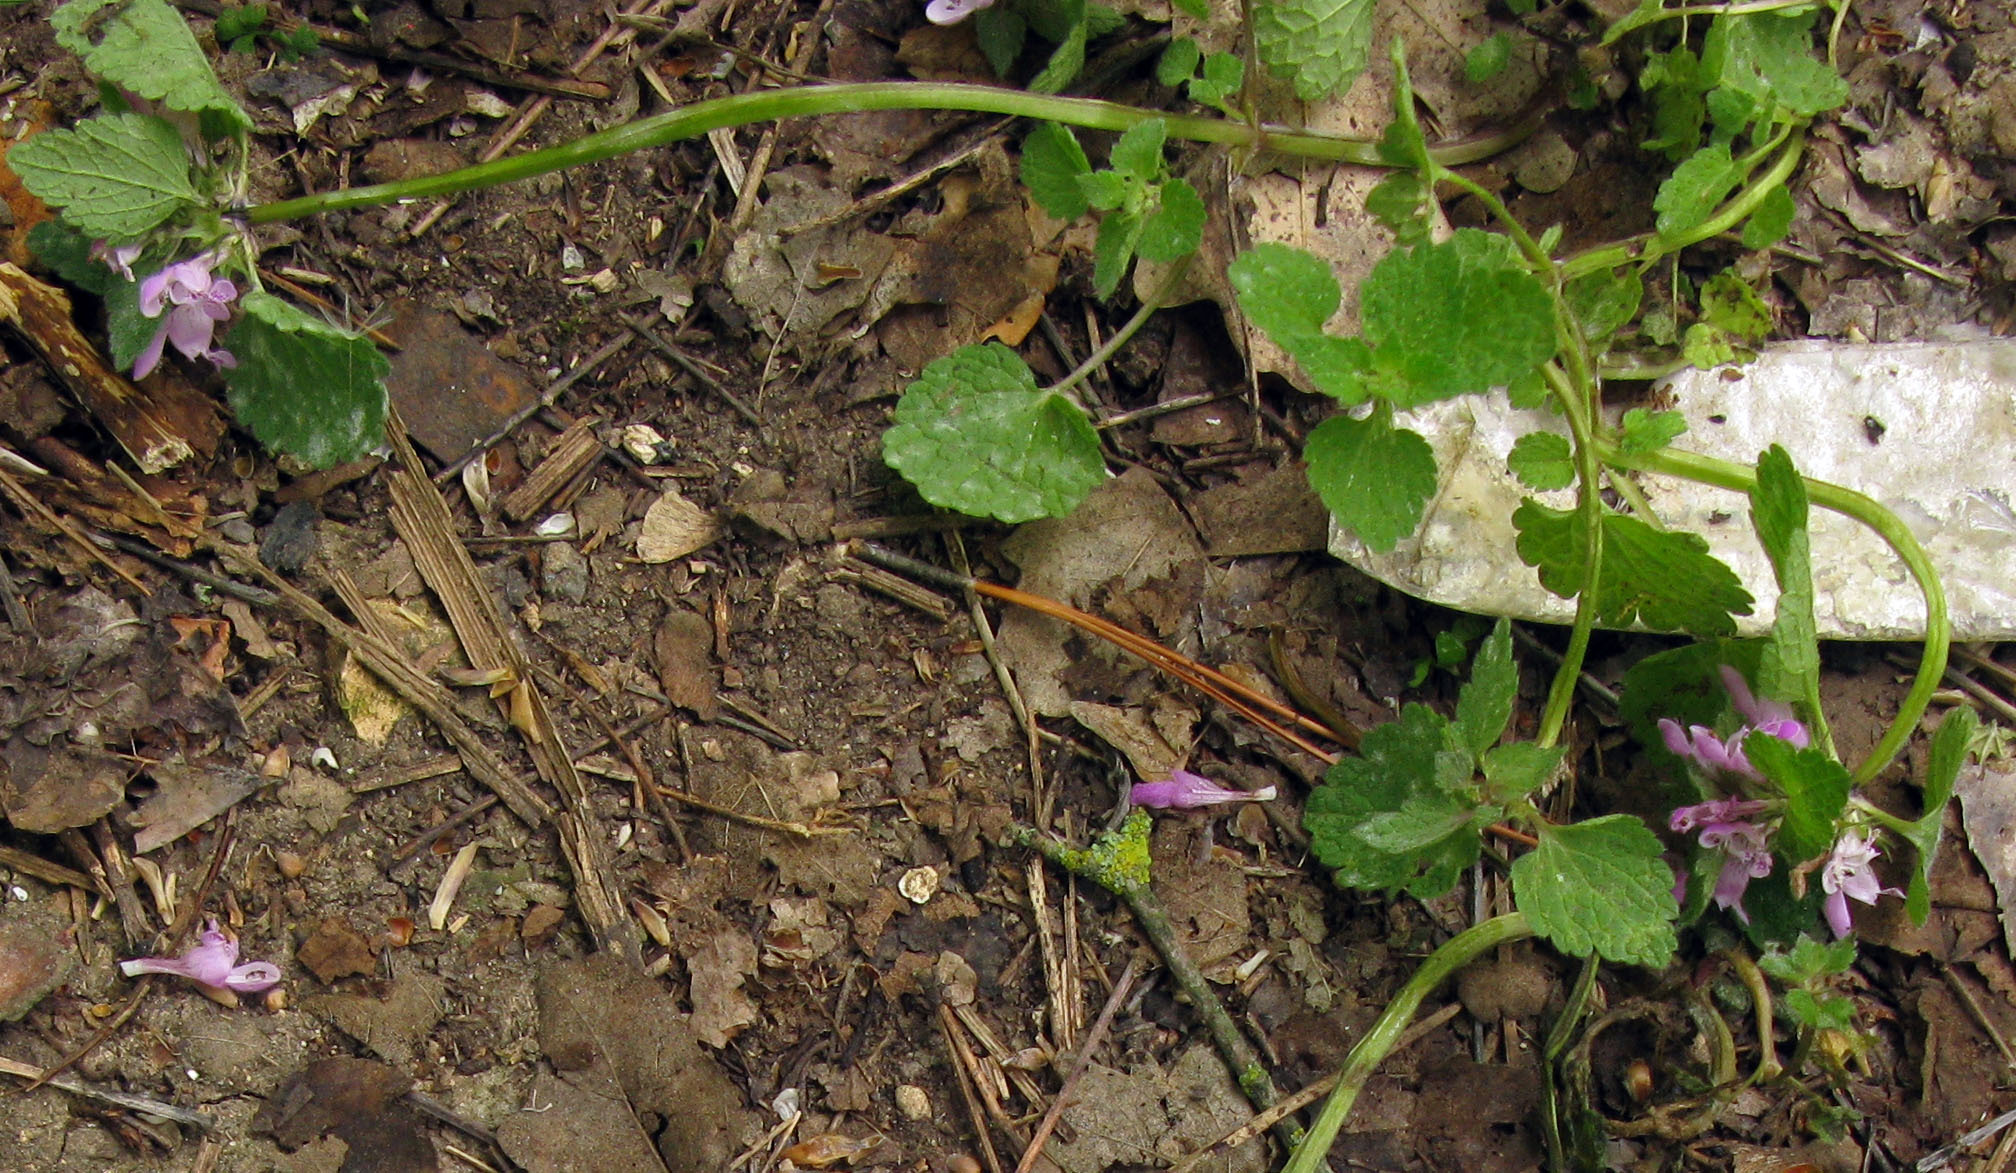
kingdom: Plantae
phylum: Tracheophyta
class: Magnoliopsida
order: Lamiales
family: Lamiaceae
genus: Lamium
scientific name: Lamium purpureum
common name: Red dead-nettle
